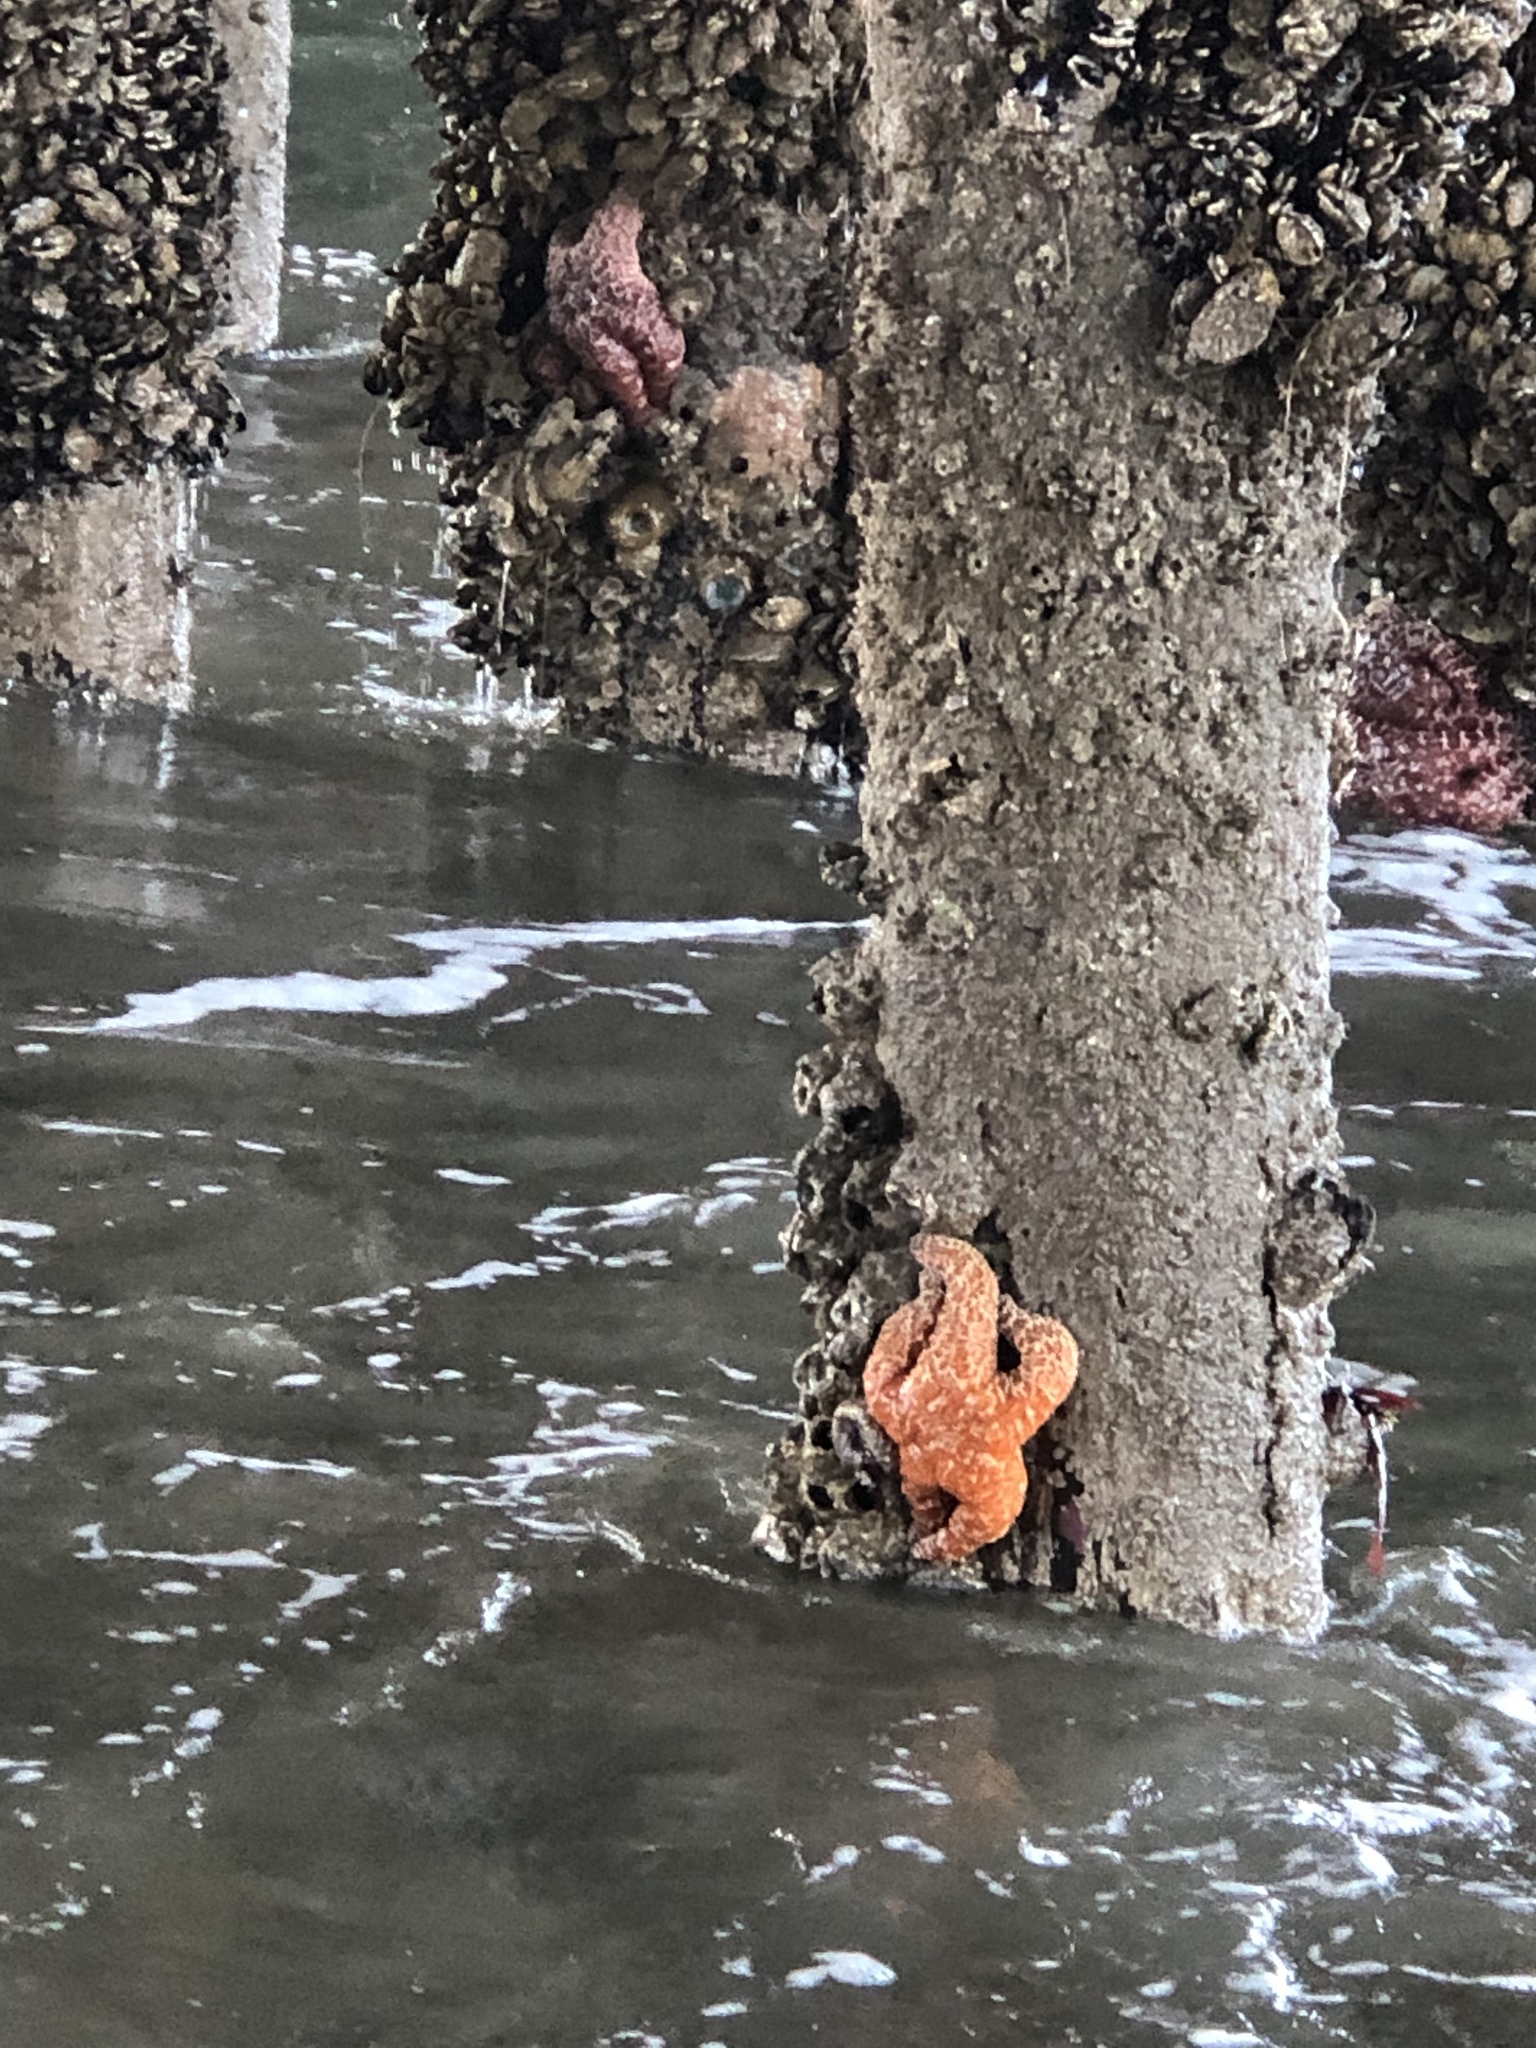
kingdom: Animalia
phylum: Echinodermata
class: Asteroidea
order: Forcipulatida
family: Asteriidae
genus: Pisaster
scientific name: Pisaster ochraceus
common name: Ochre stars
